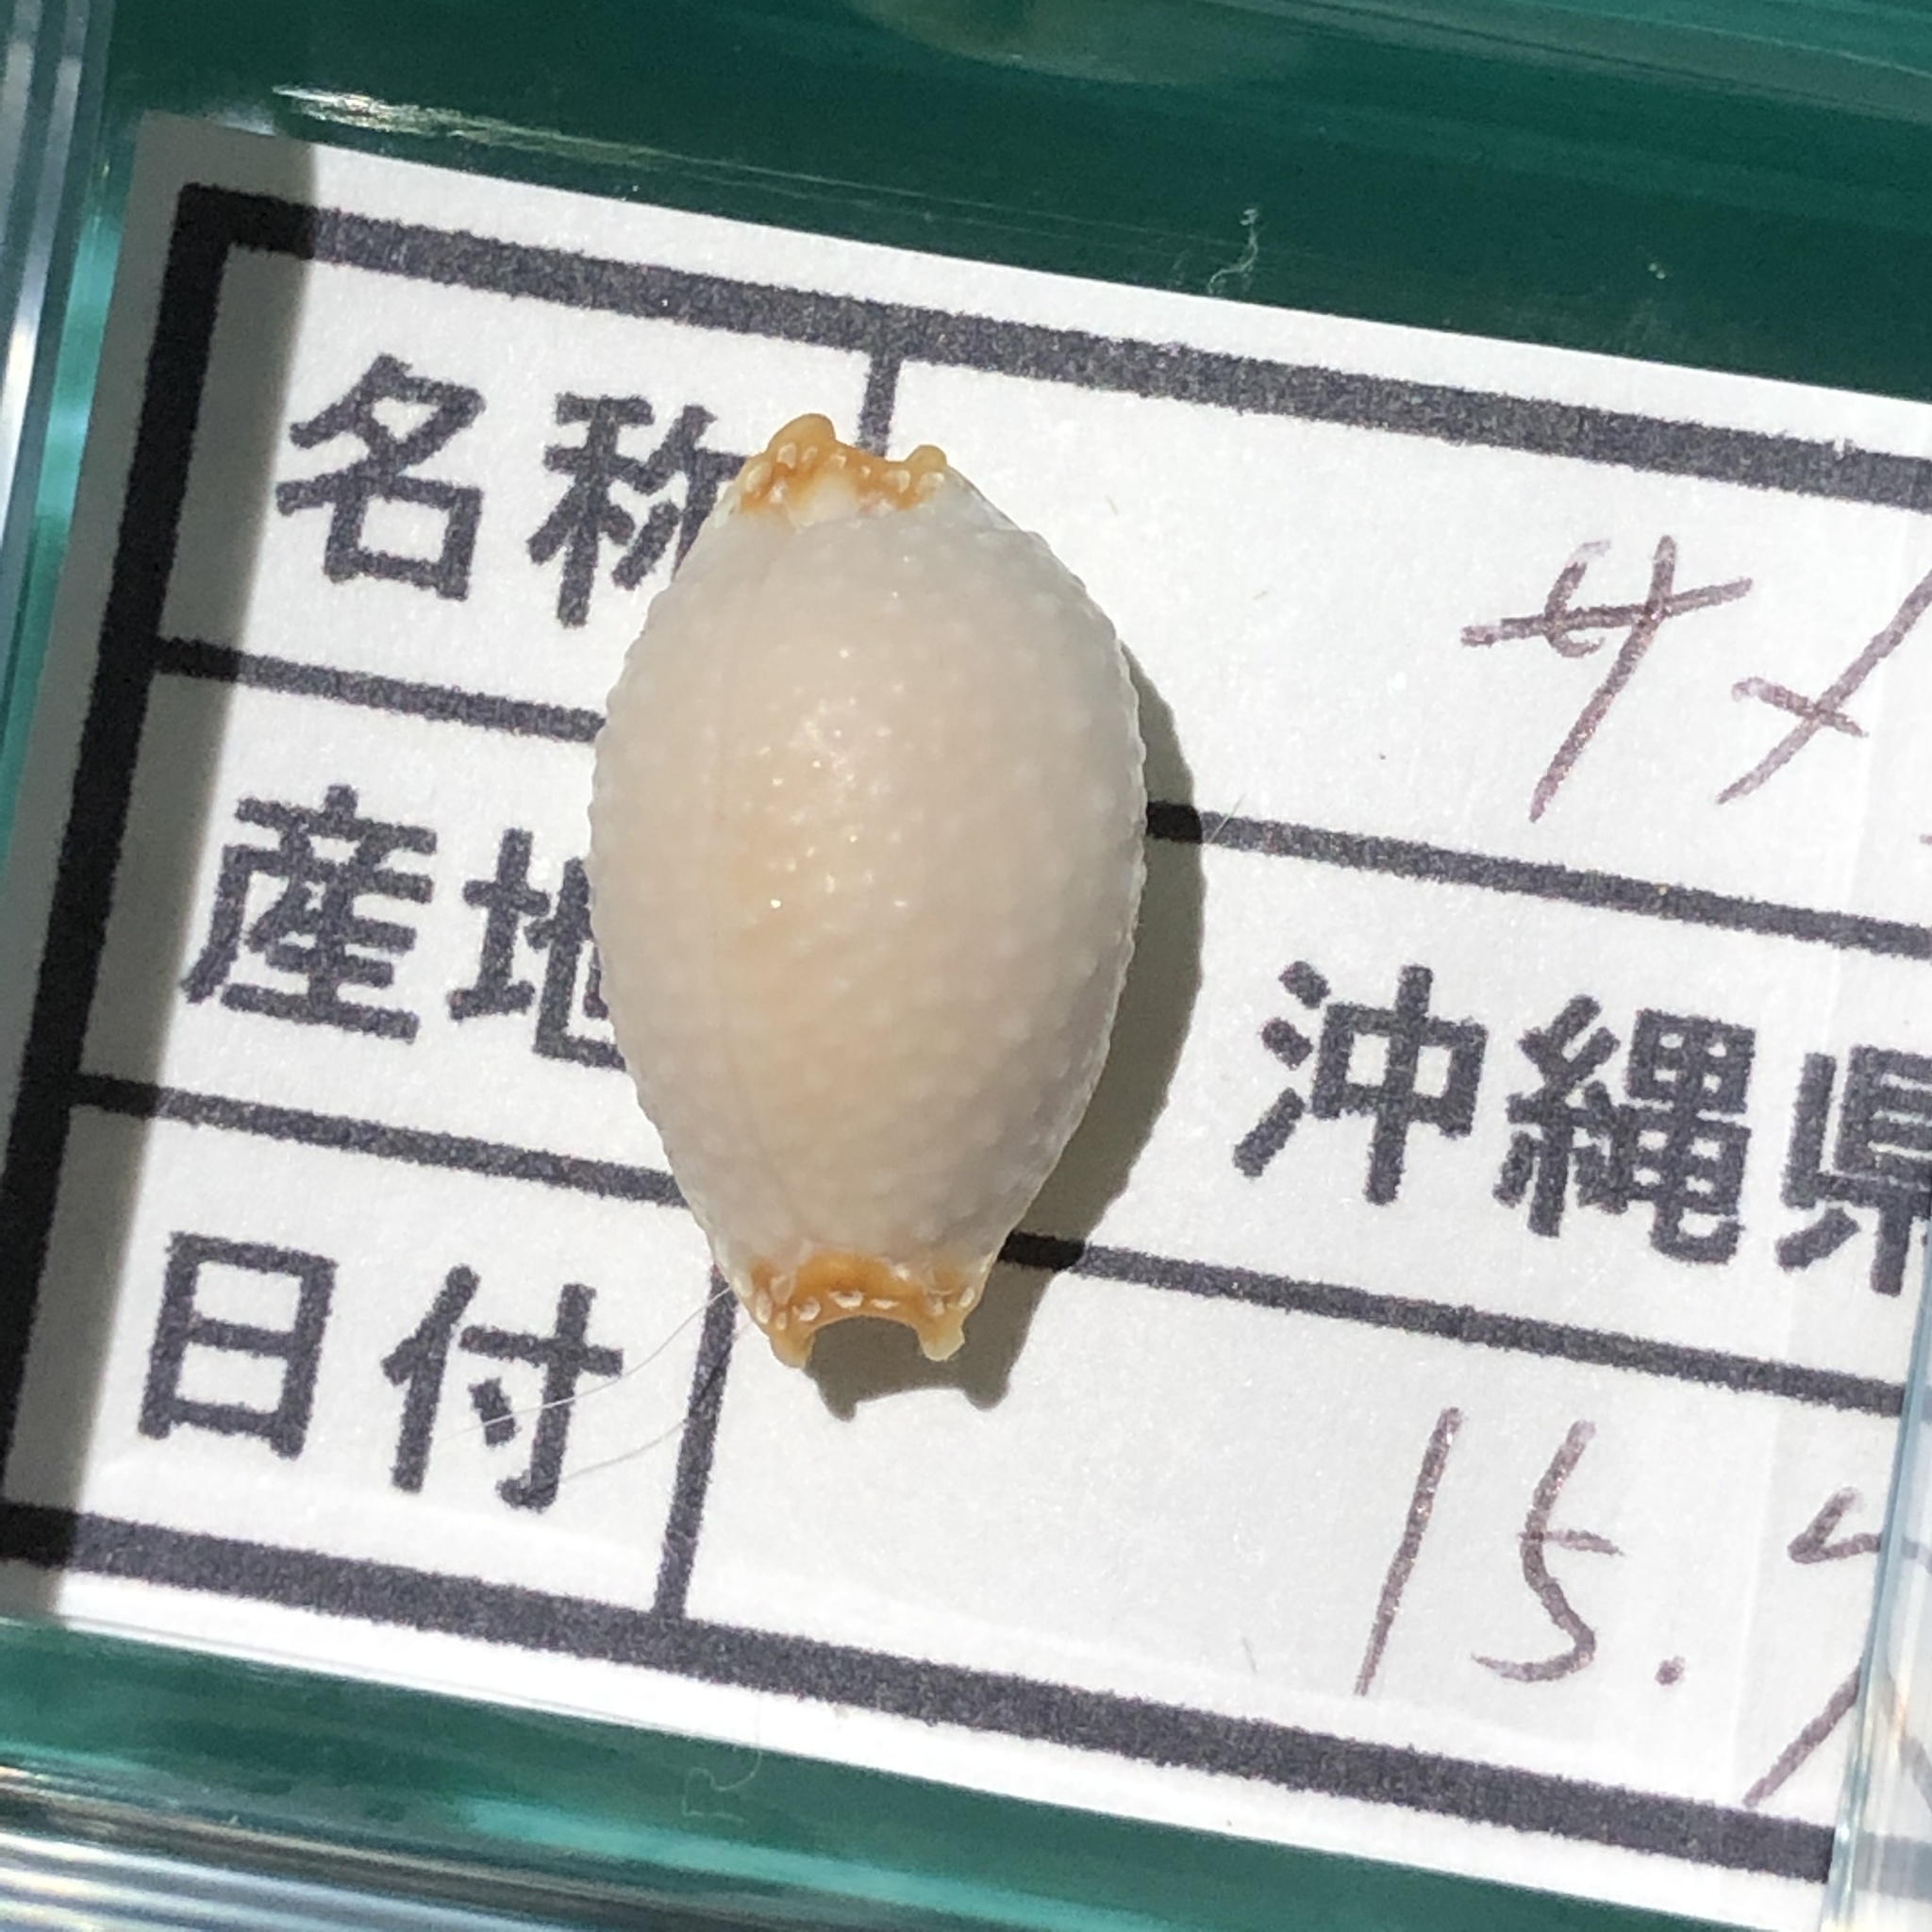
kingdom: Animalia
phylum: Mollusca
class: Gastropoda
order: Littorinimorpha
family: Cypraeidae
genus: Staphylaea
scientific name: Staphylaea staphylaea
